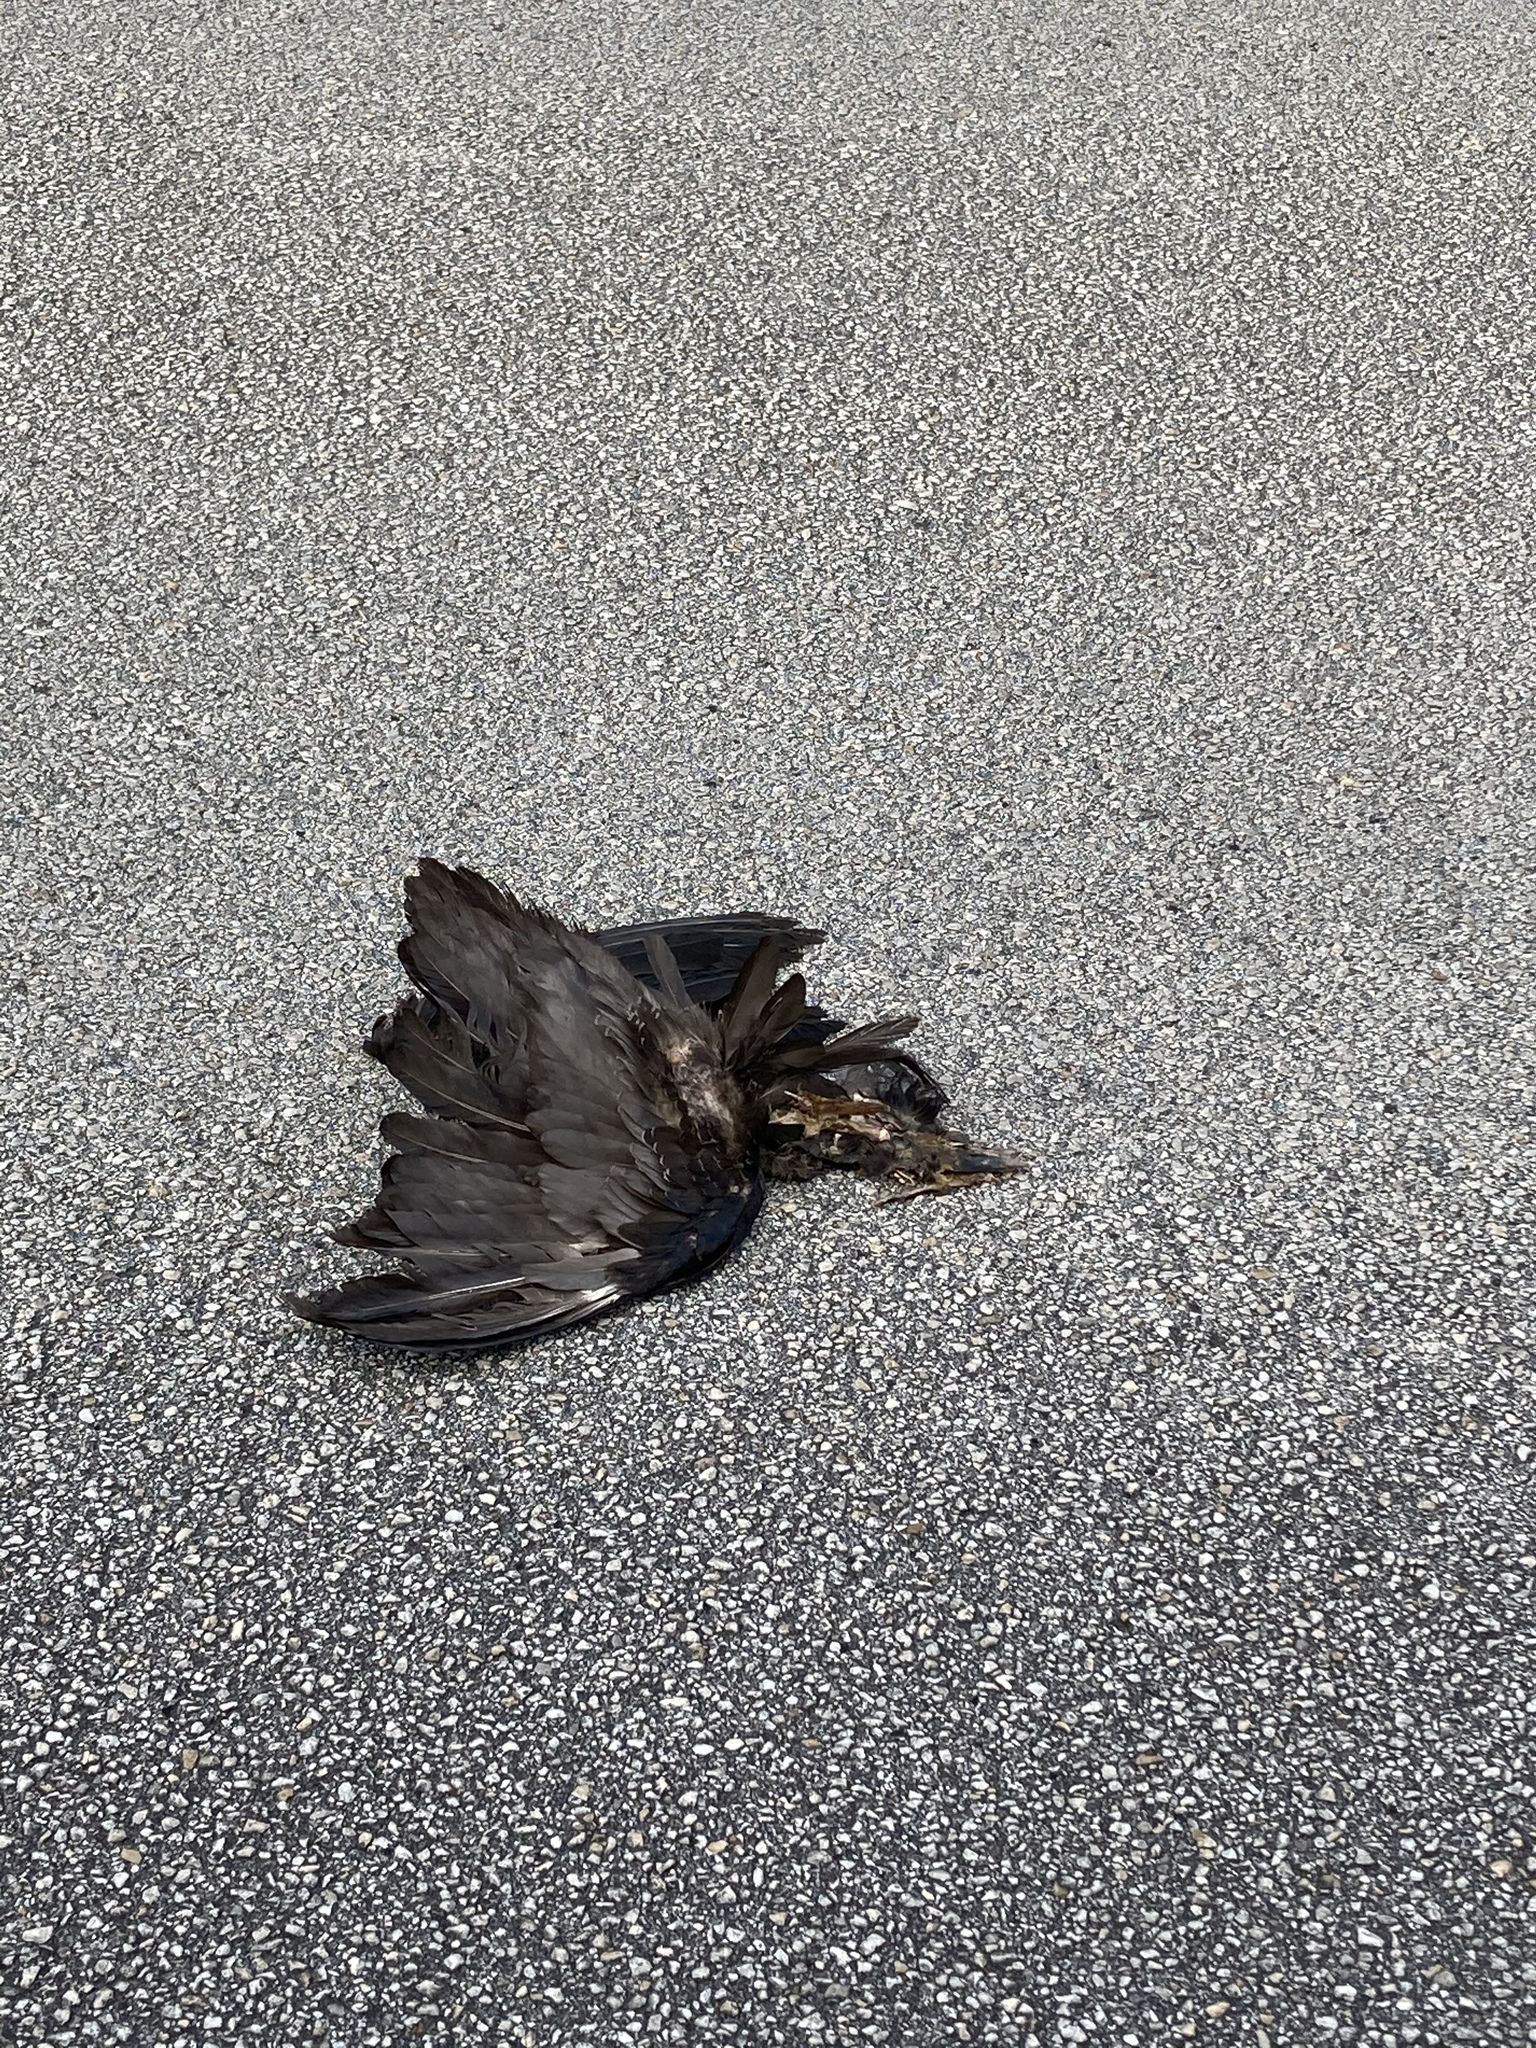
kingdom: Animalia
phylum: Chordata
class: Aves
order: Passeriformes
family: Corvidae
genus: Corvus
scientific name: Corvus ossifragus
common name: Fish crow
